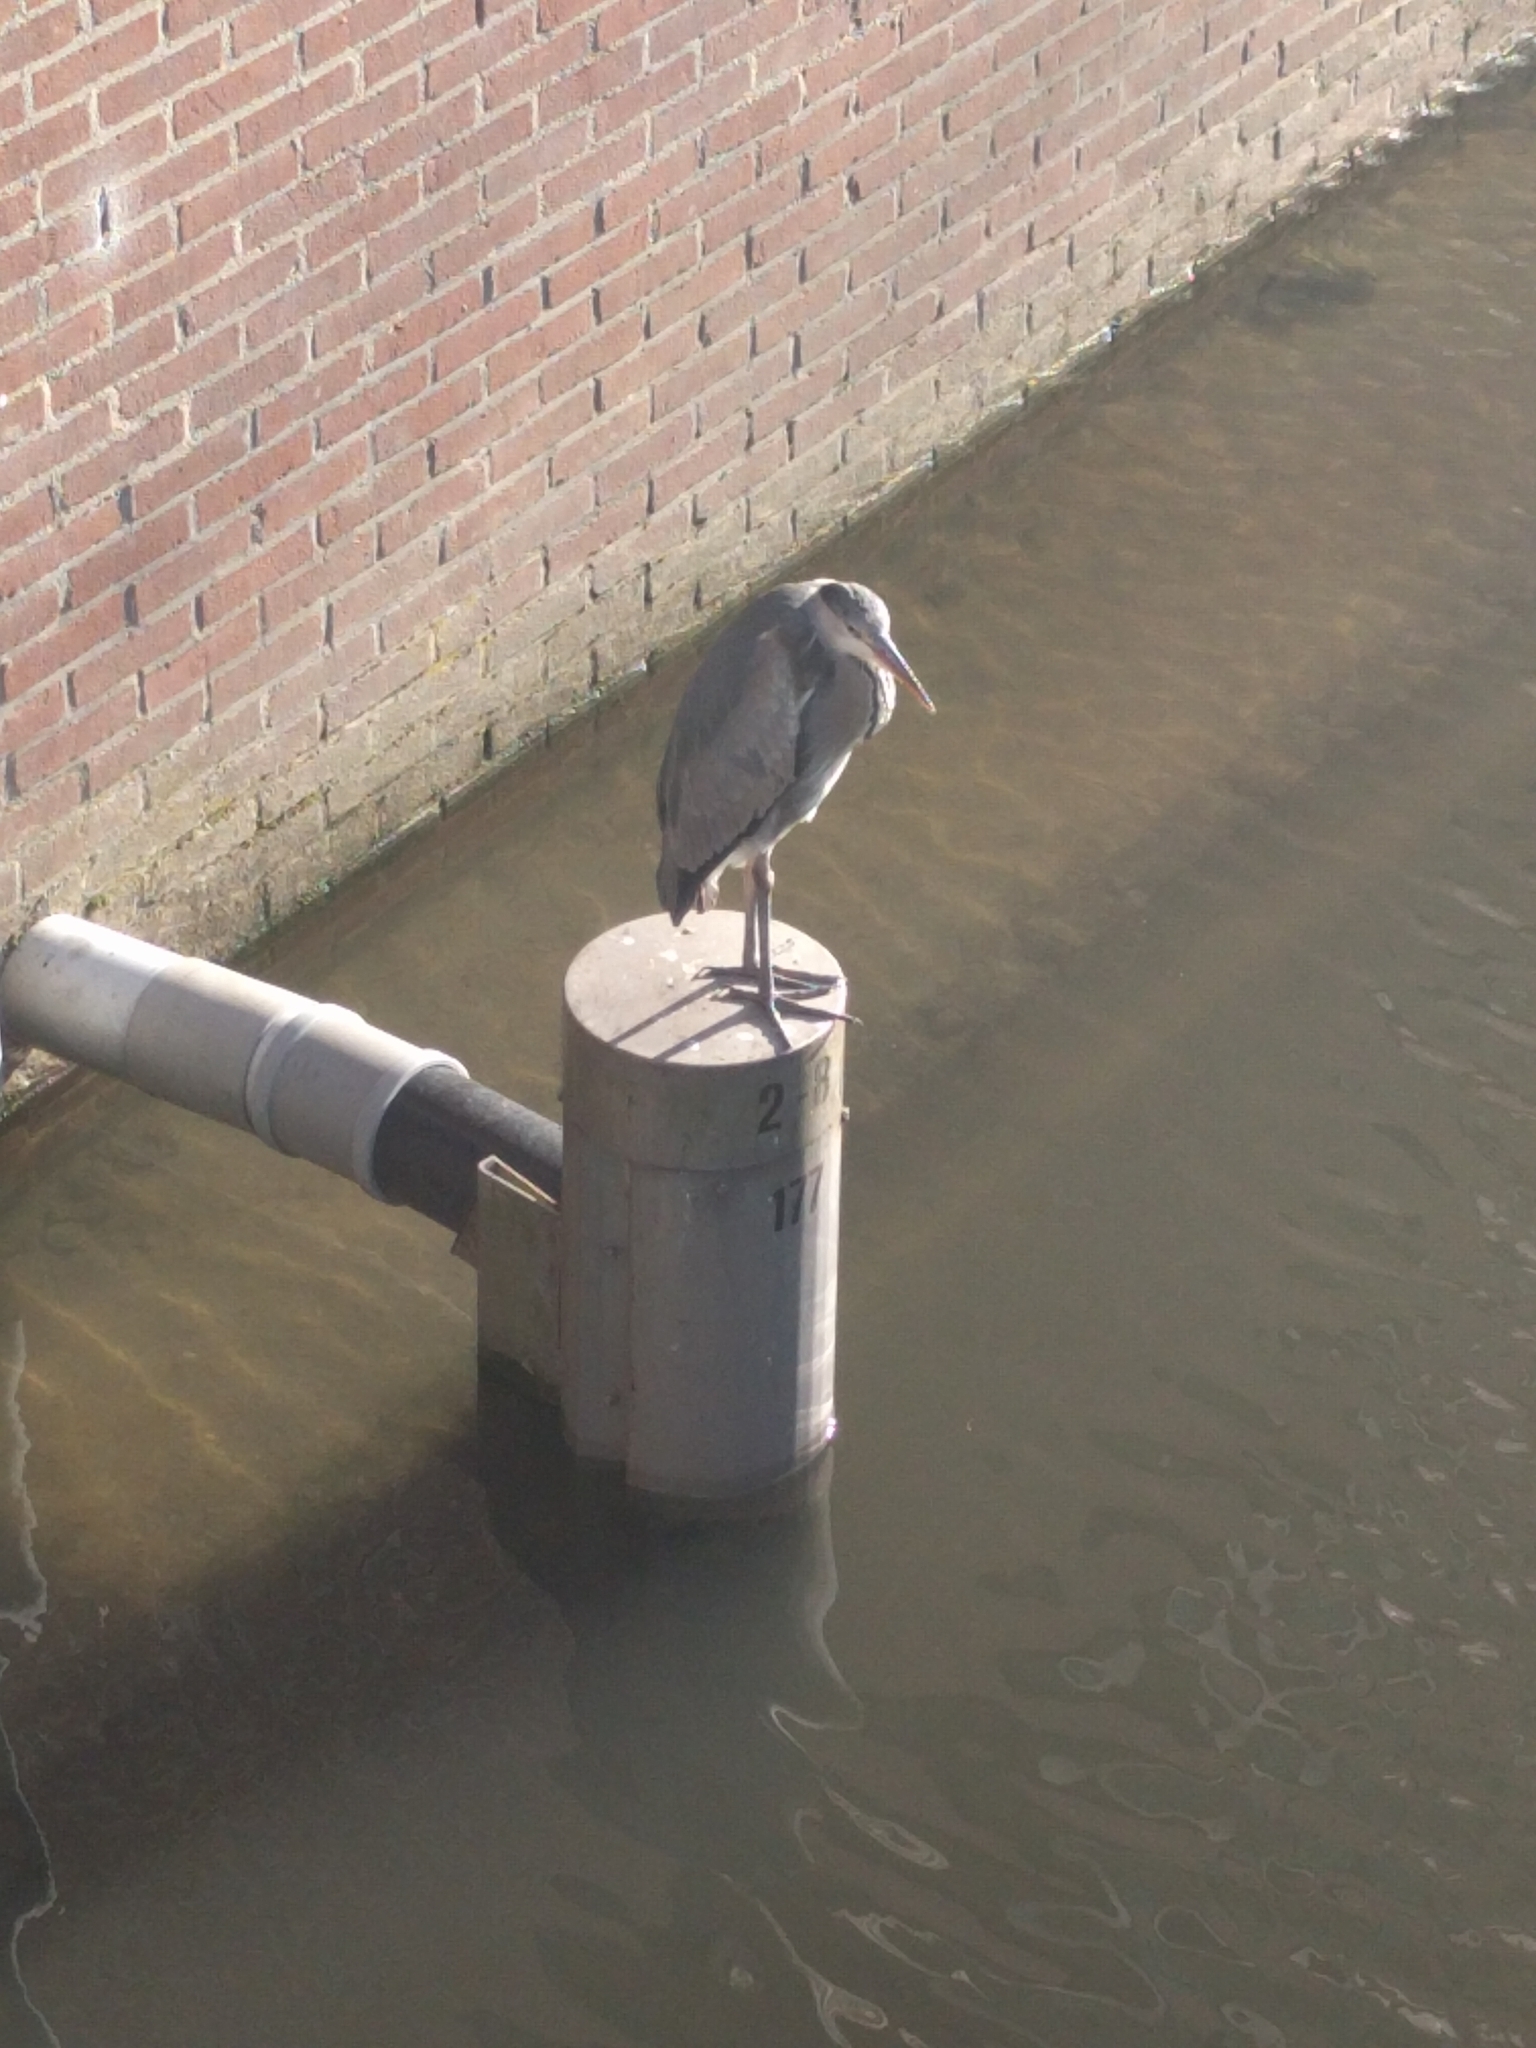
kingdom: Animalia
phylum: Chordata
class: Aves
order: Pelecaniformes
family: Ardeidae
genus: Ardea
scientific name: Ardea cinerea
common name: Grey heron
